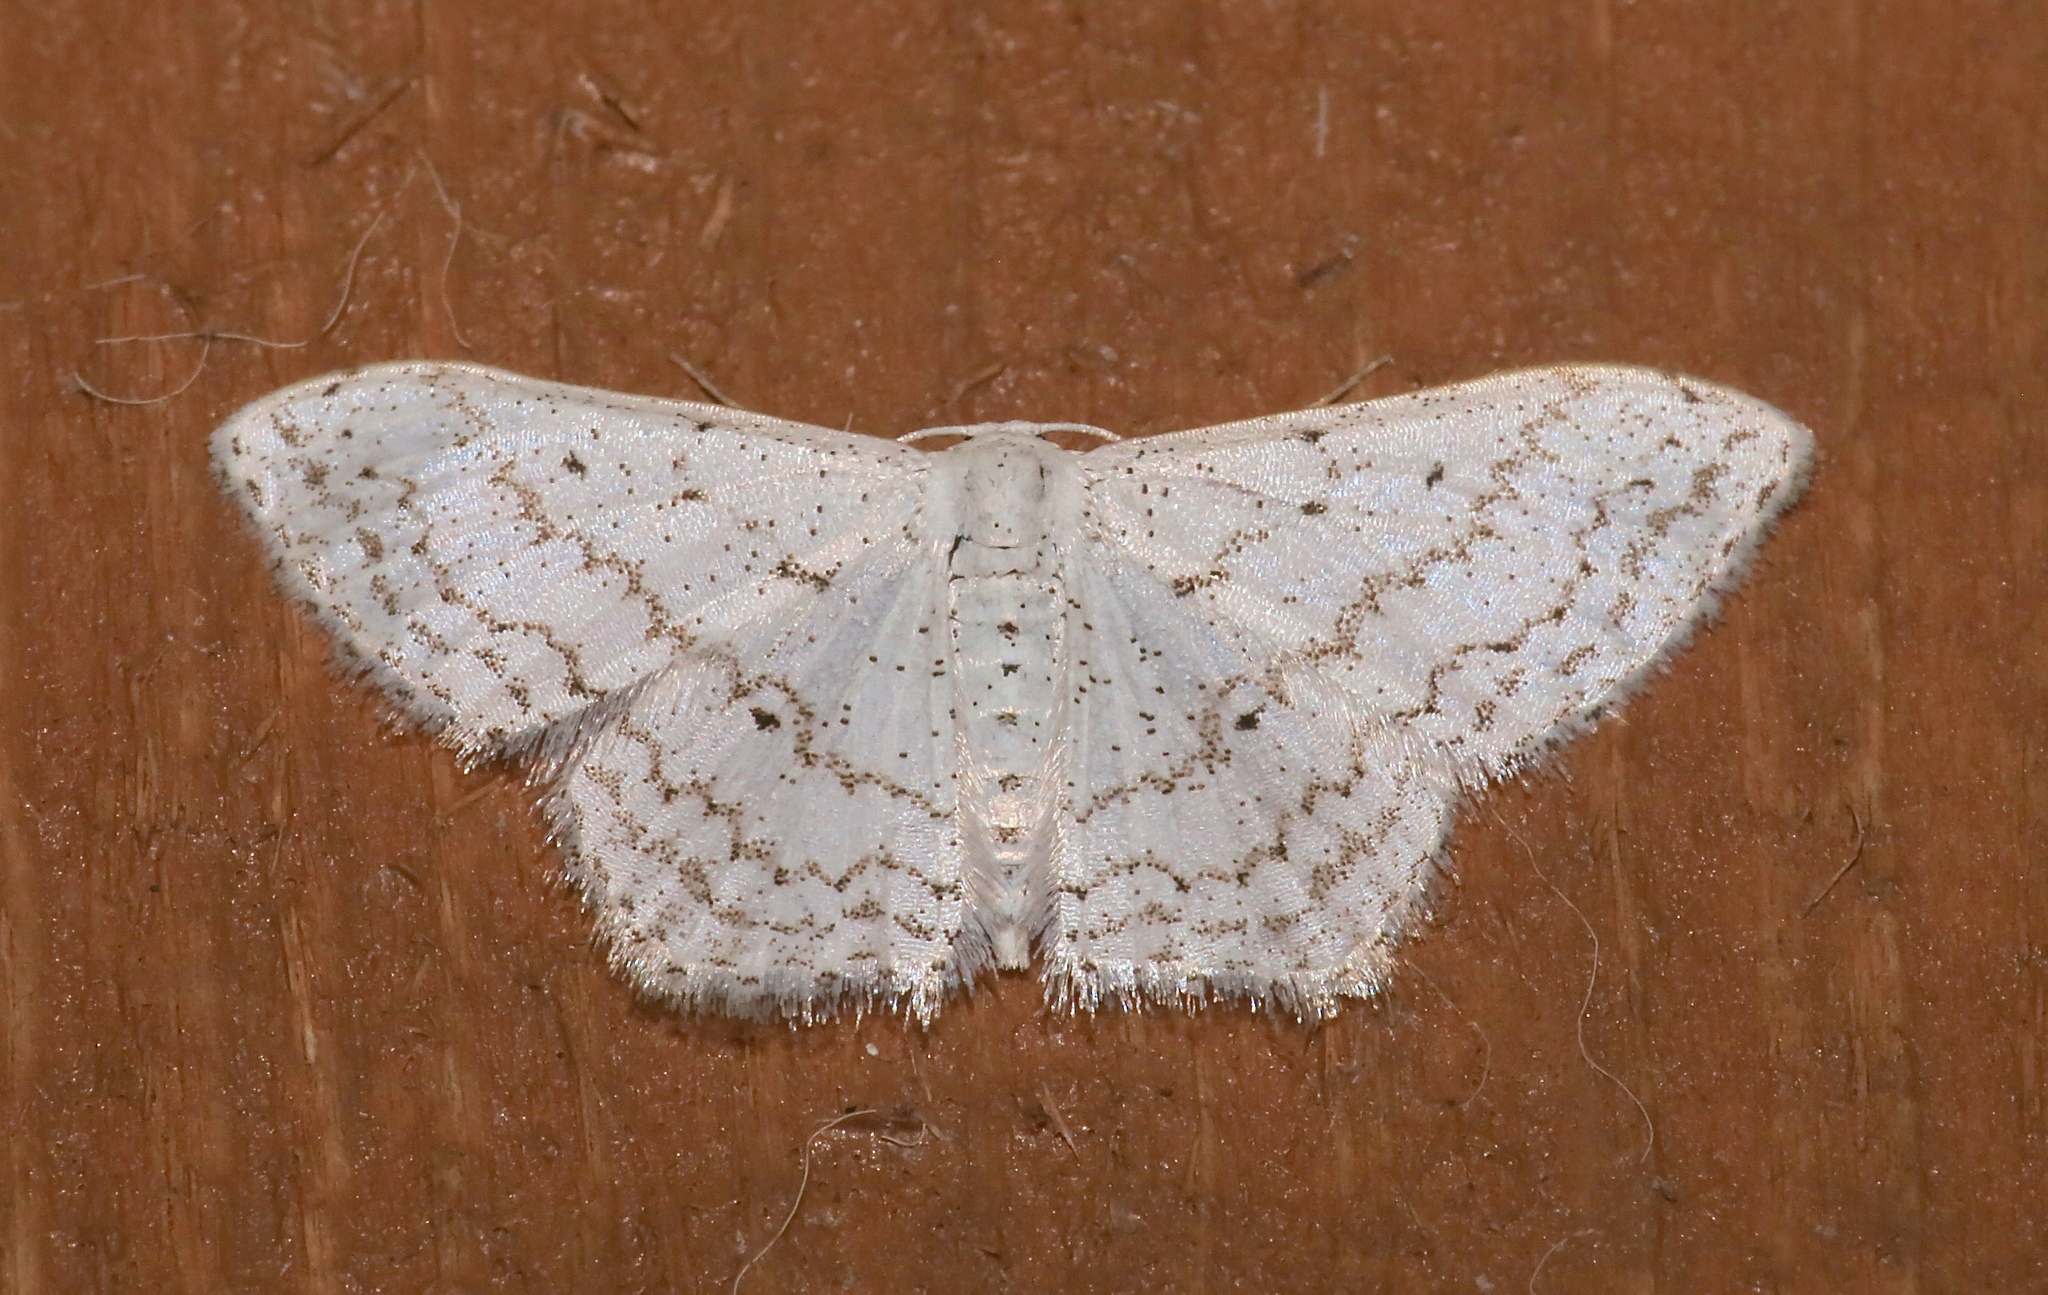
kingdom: Animalia
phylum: Arthropoda
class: Insecta
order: Lepidoptera
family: Geometridae
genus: Idaea
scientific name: Idaea tacturata
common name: Dot-lined wave
